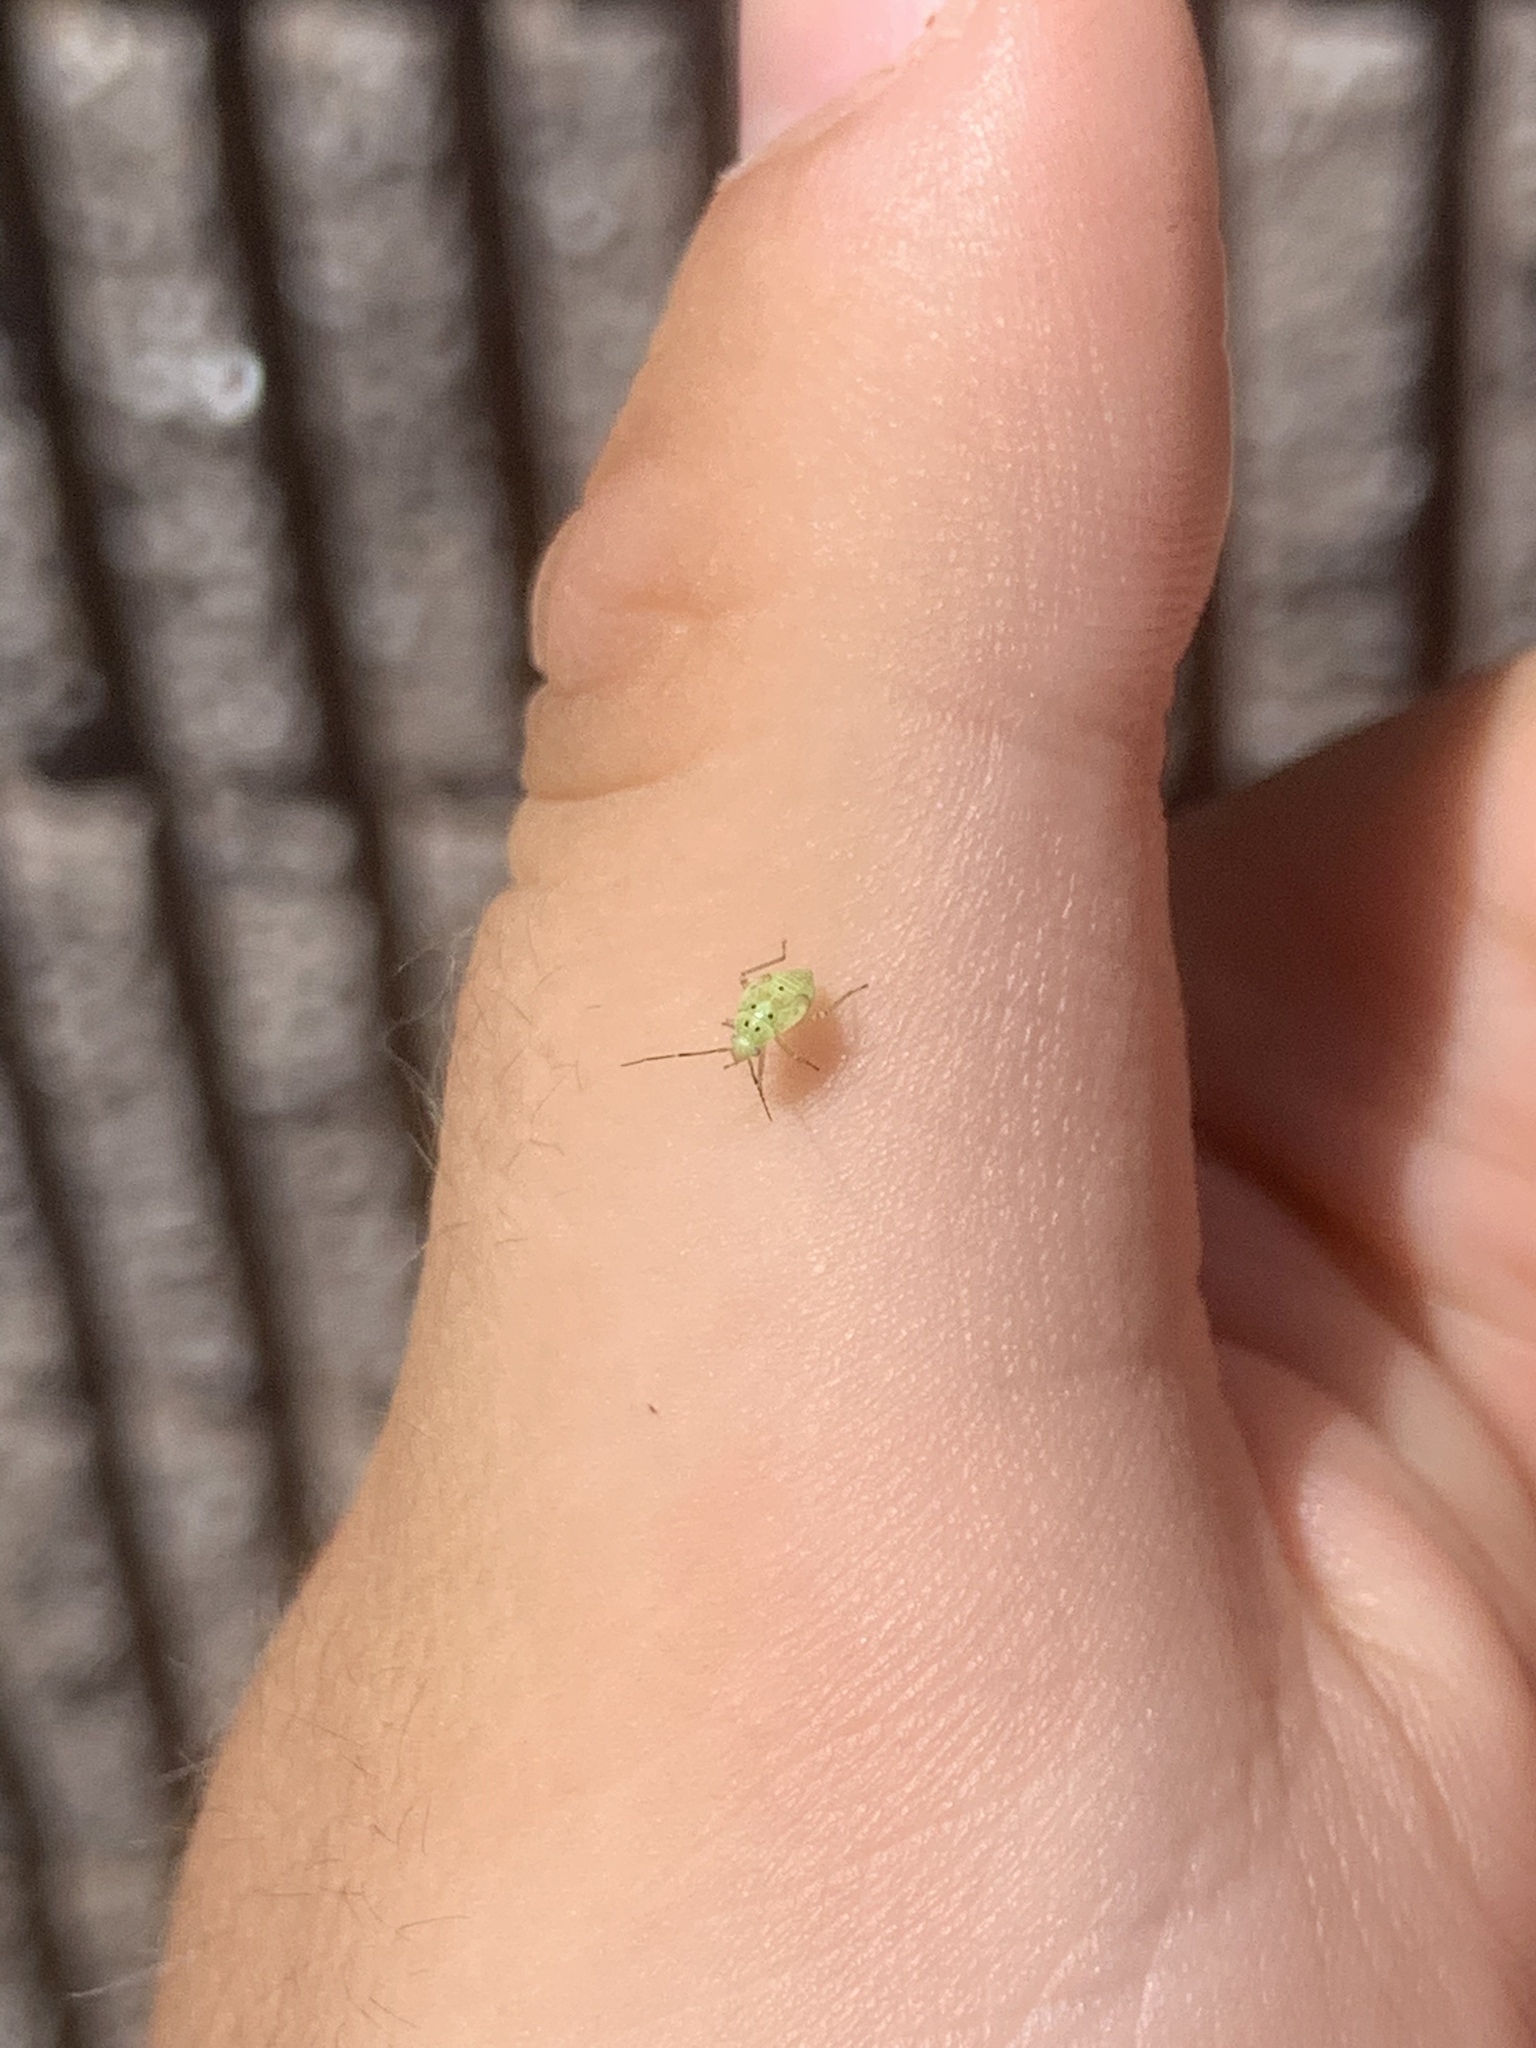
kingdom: Animalia
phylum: Arthropoda
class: Insecta
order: Hemiptera
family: Miridae
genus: Lygus
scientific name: Lygus lineolaris
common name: North american tarnished plant bug
